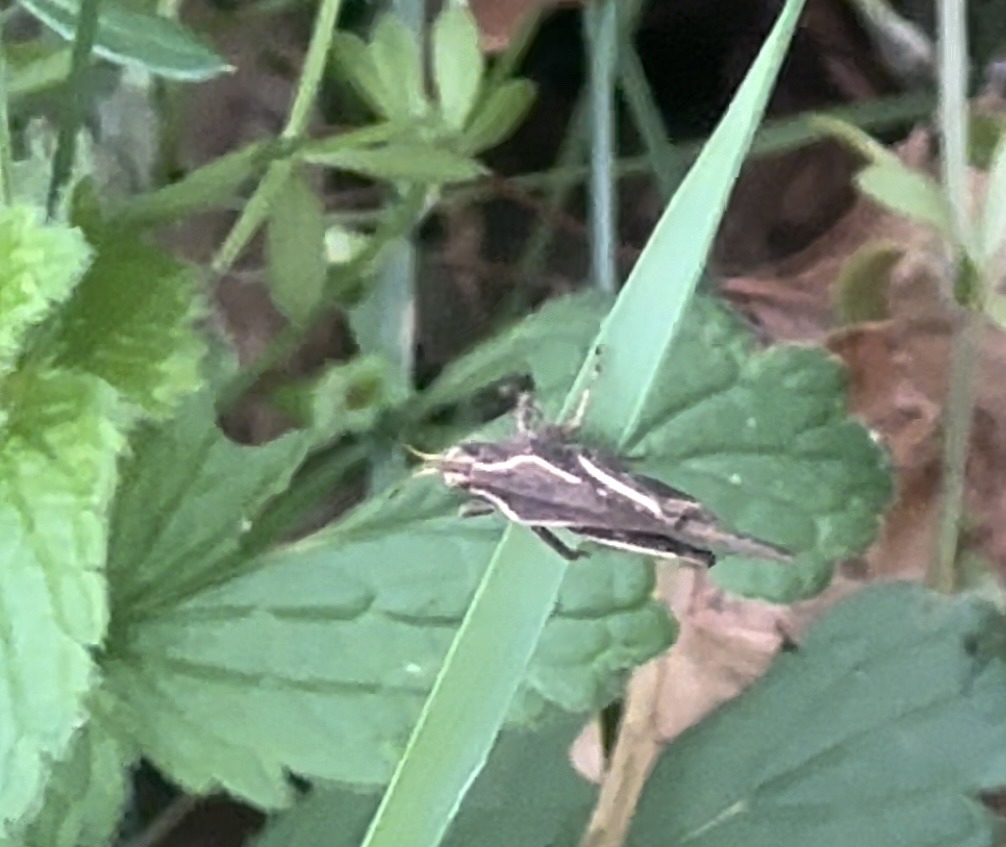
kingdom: Animalia
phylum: Arthropoda
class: Insecta
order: Orthoptera
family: Tetrigidae
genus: Tetrix
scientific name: Tetrix subulata
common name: Slender ground-hopper
